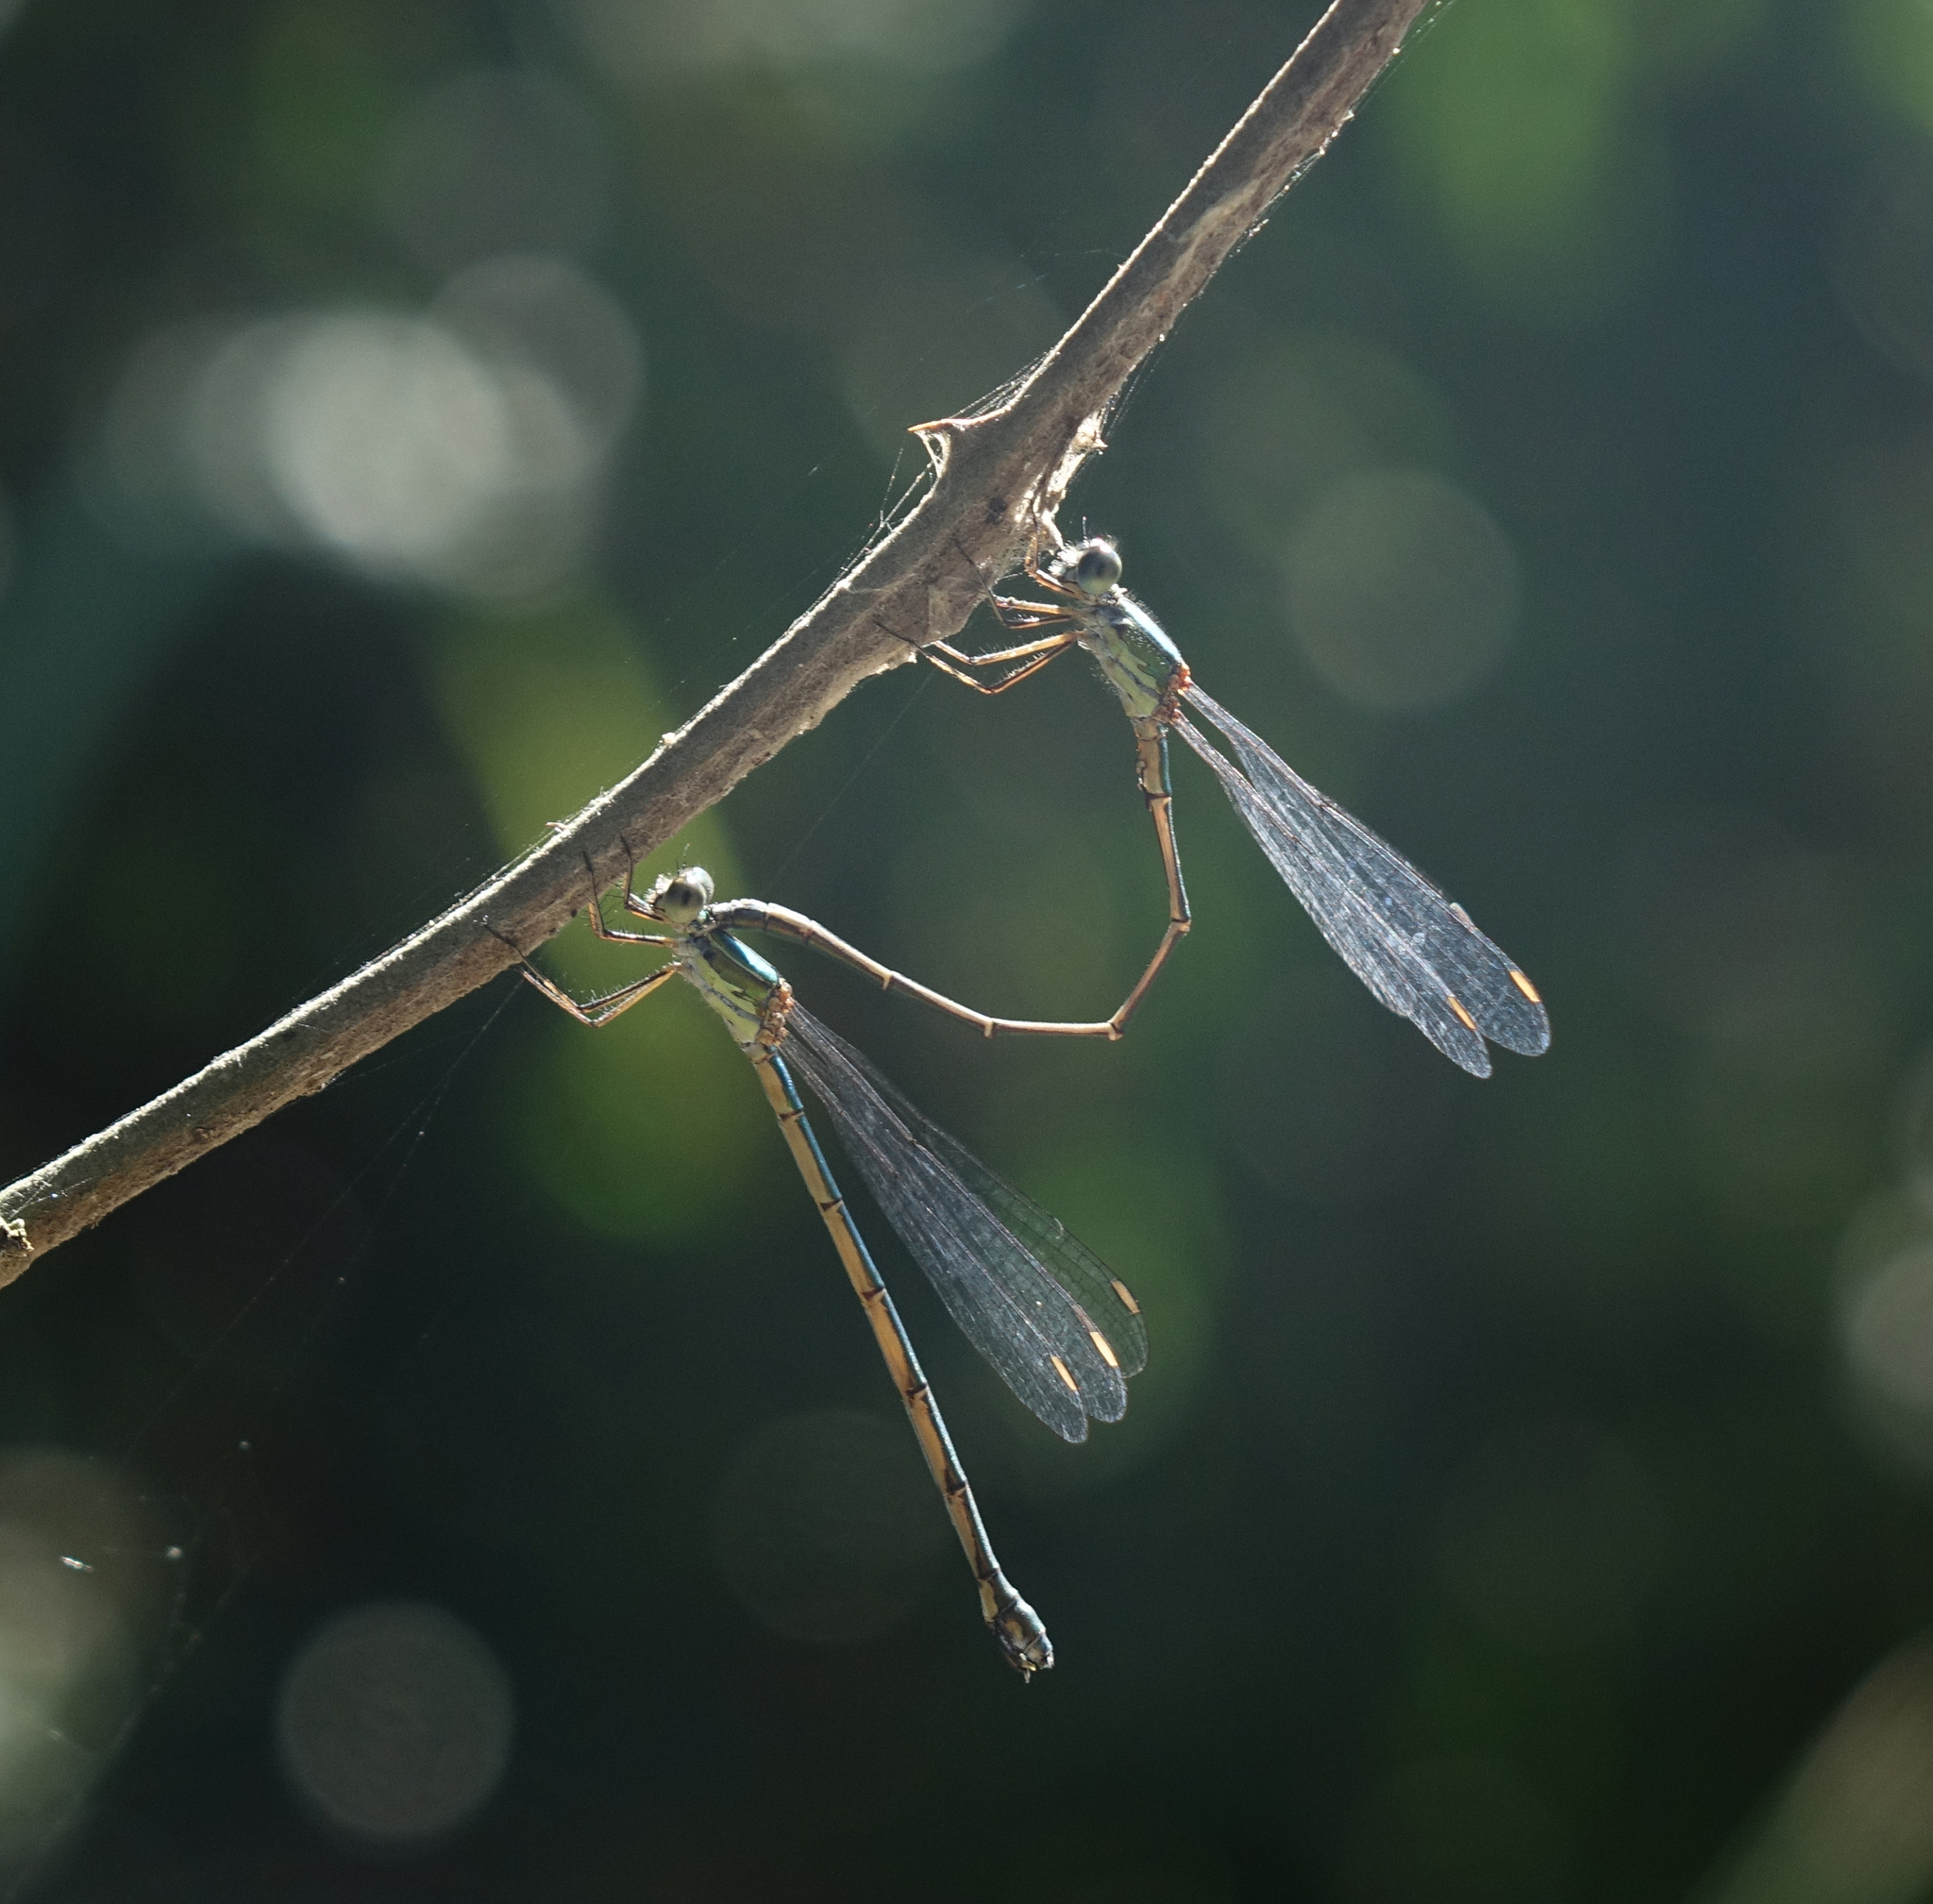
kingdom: Animalia
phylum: Arthropoda
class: Insecta
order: Odonata
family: Lestidae
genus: Chalcolestes
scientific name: Chalcolestes parvidens
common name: Eastern willow spreadwing
